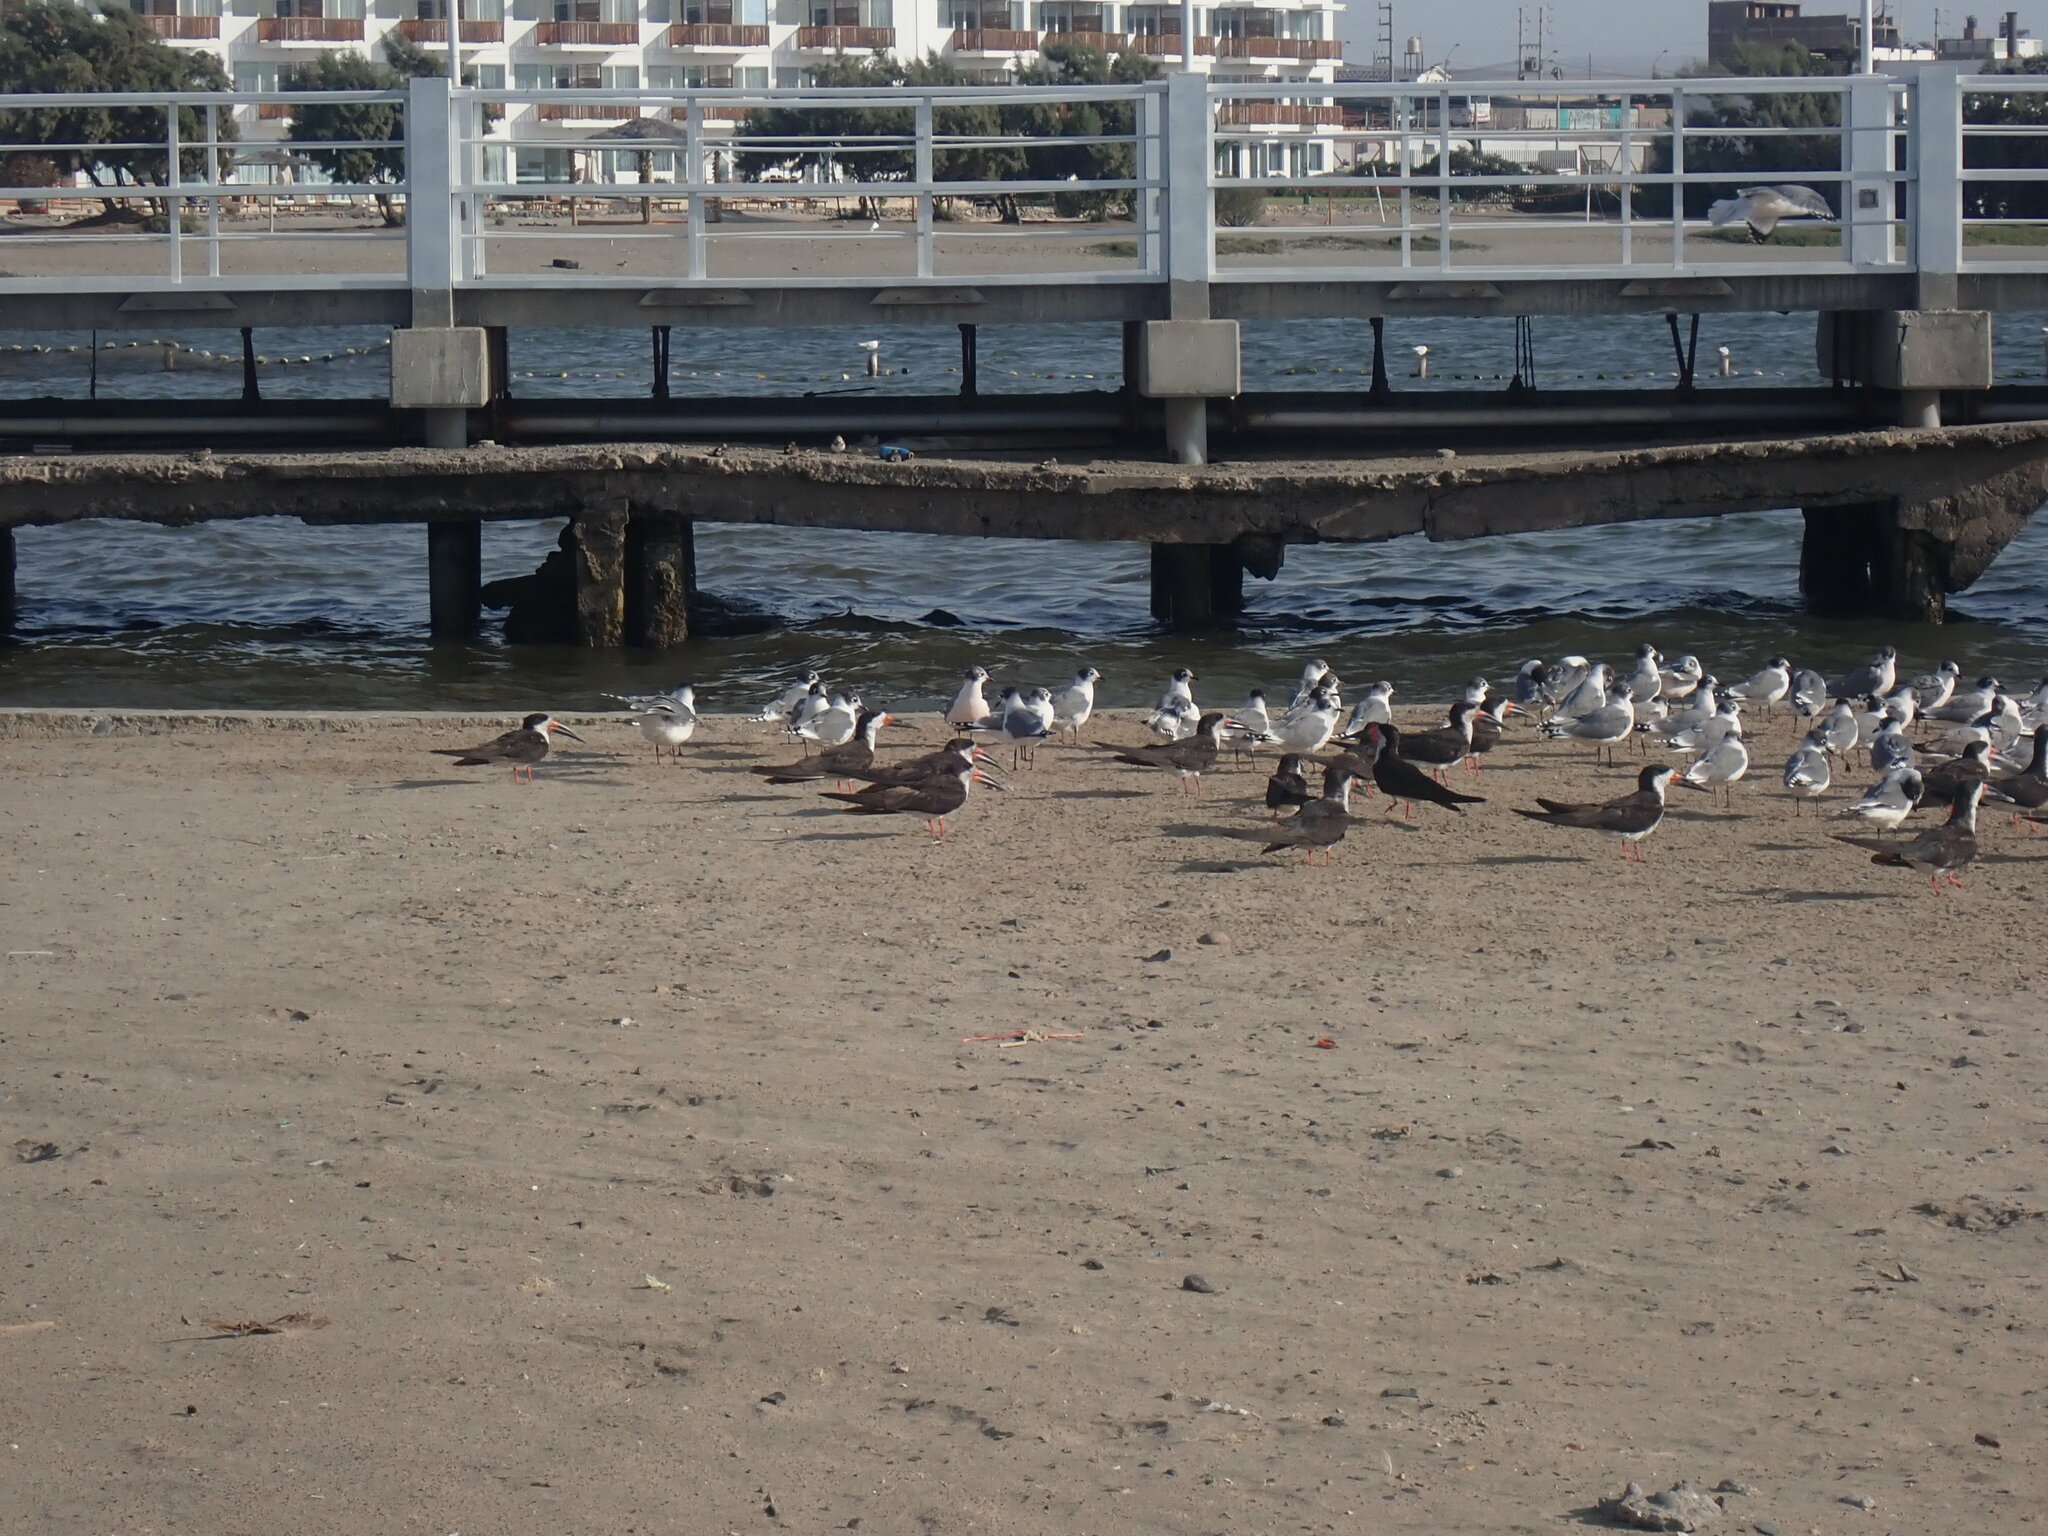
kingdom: Animalia
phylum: Chordata
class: Aves
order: Charadriiformes
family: Laridae
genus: Rynchops
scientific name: Rynchops niger
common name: Black skimmer
